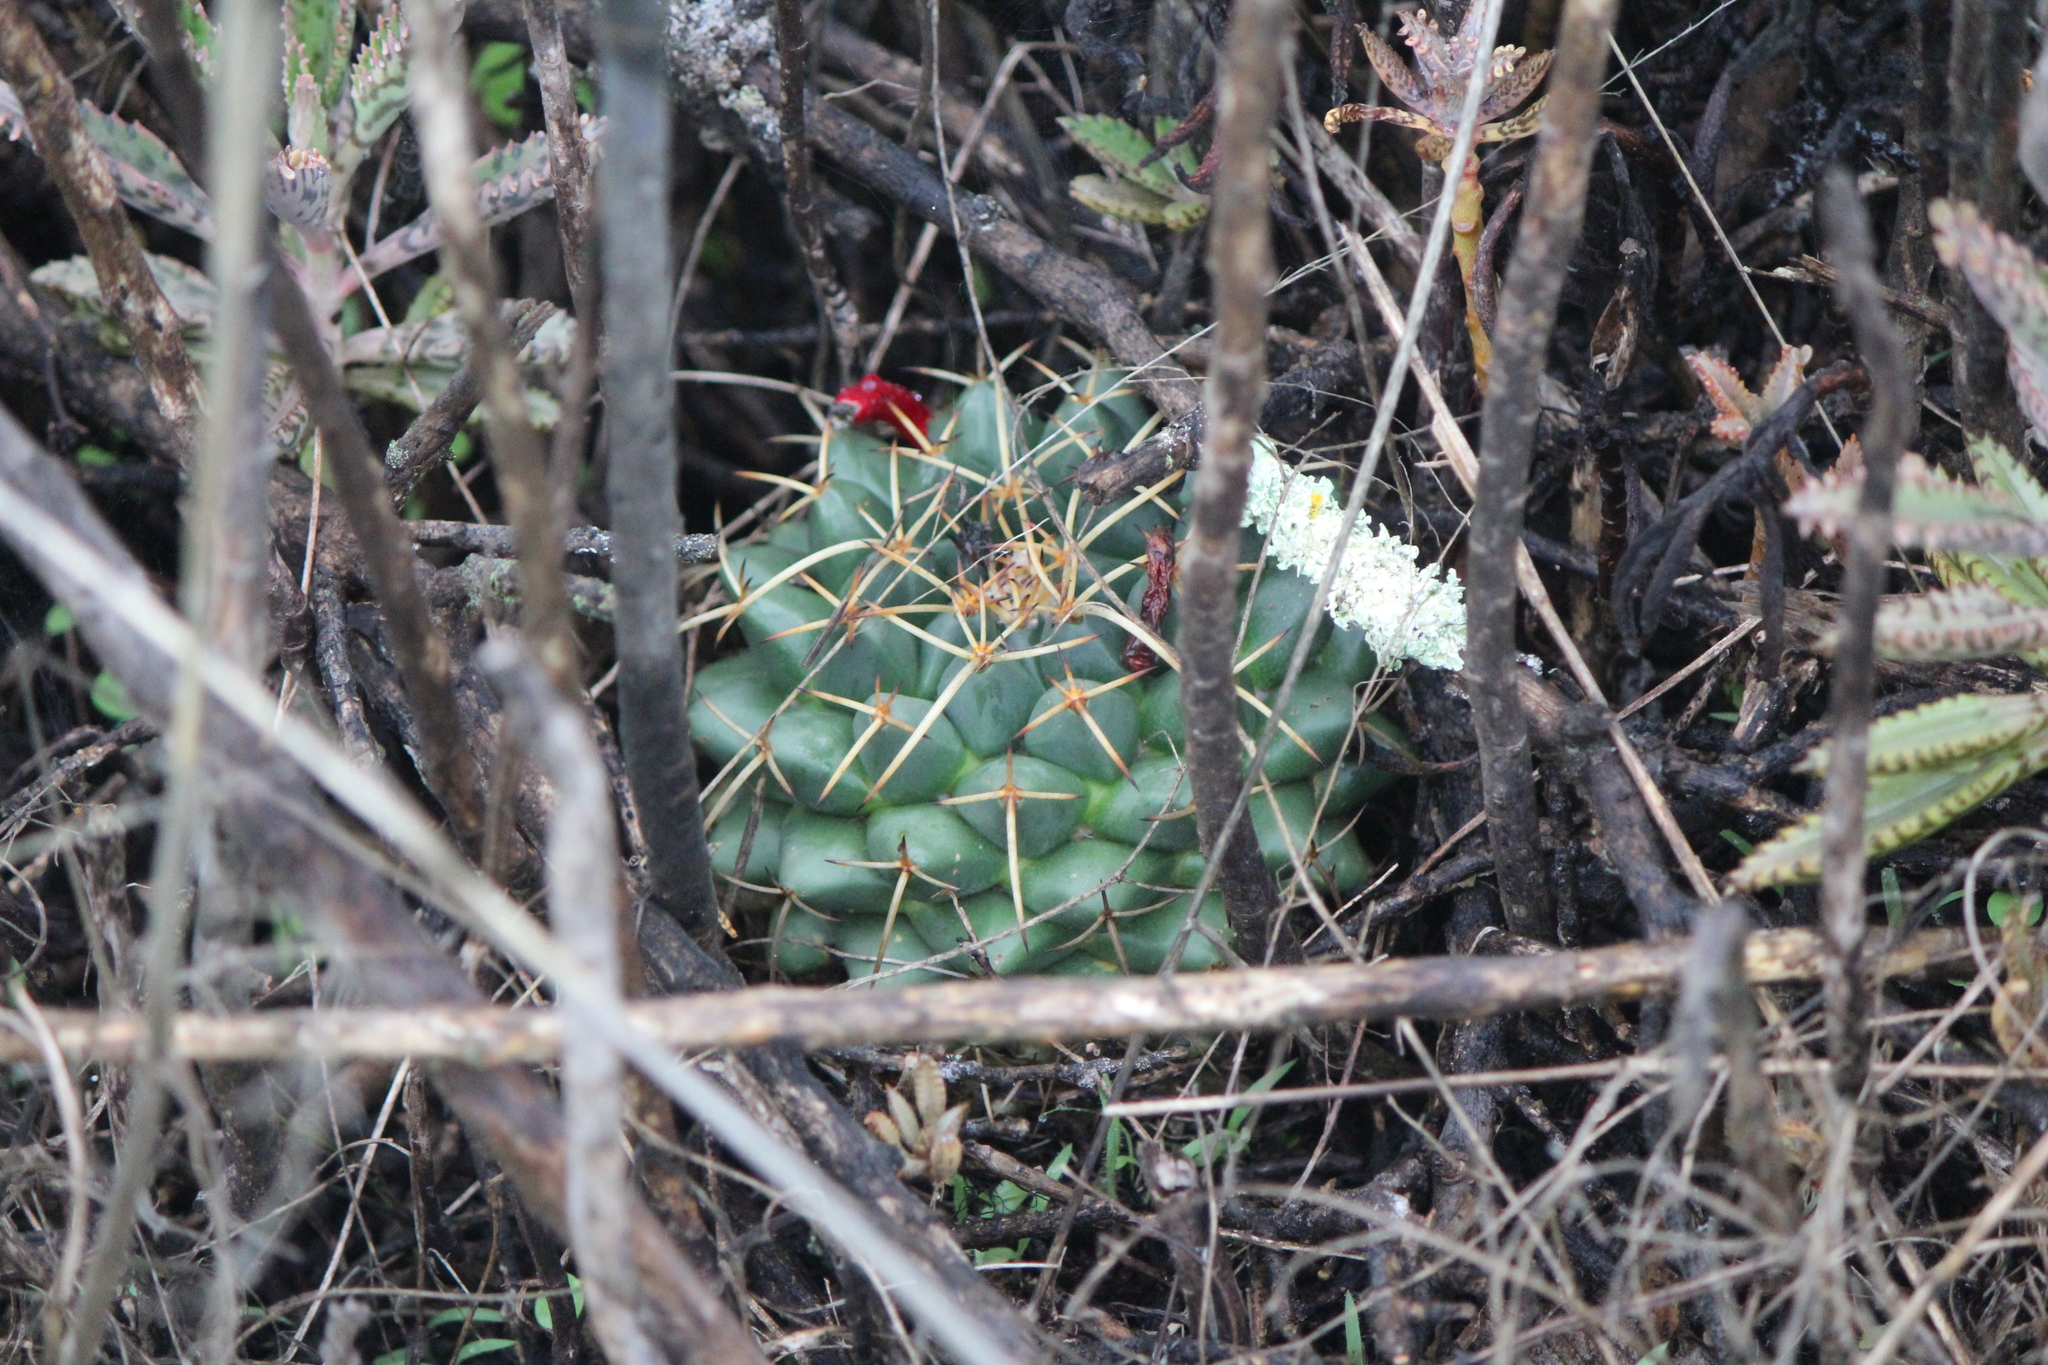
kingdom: Plantae
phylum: Tracheophyta
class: Magnoliopsida
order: Caryophyllales
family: Cactaceae
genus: Mammillaria
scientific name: Mammillaria magnimamma
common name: Mexican pincushion
